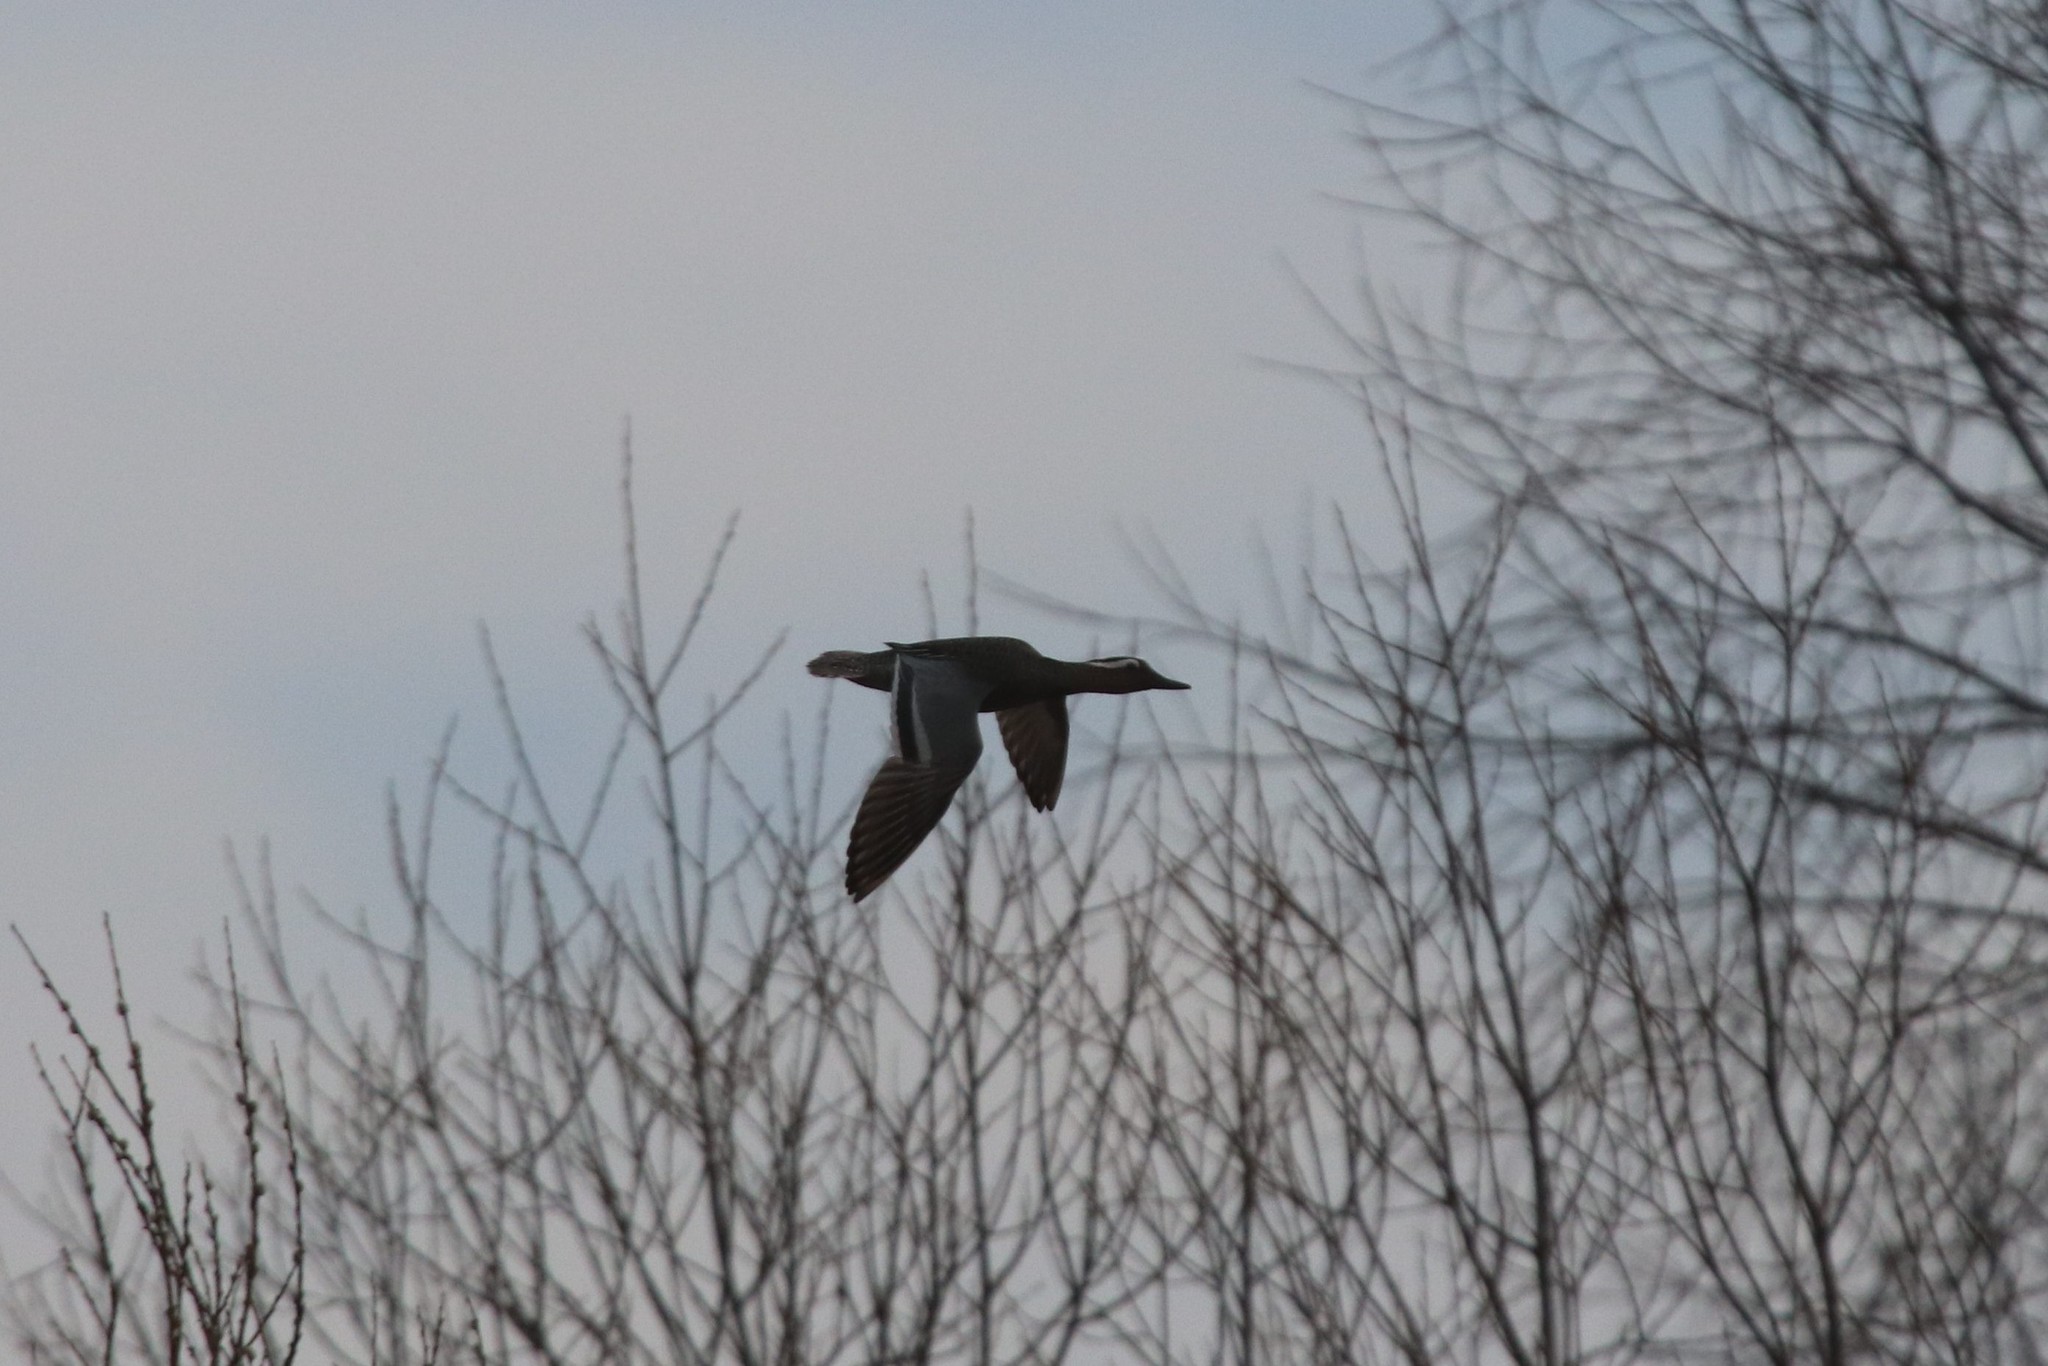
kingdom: Animalia
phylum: Chordata
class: Aves
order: Anseriformes
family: Anatidae
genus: Spatula
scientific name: Spatula querquedula
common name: Garganey
